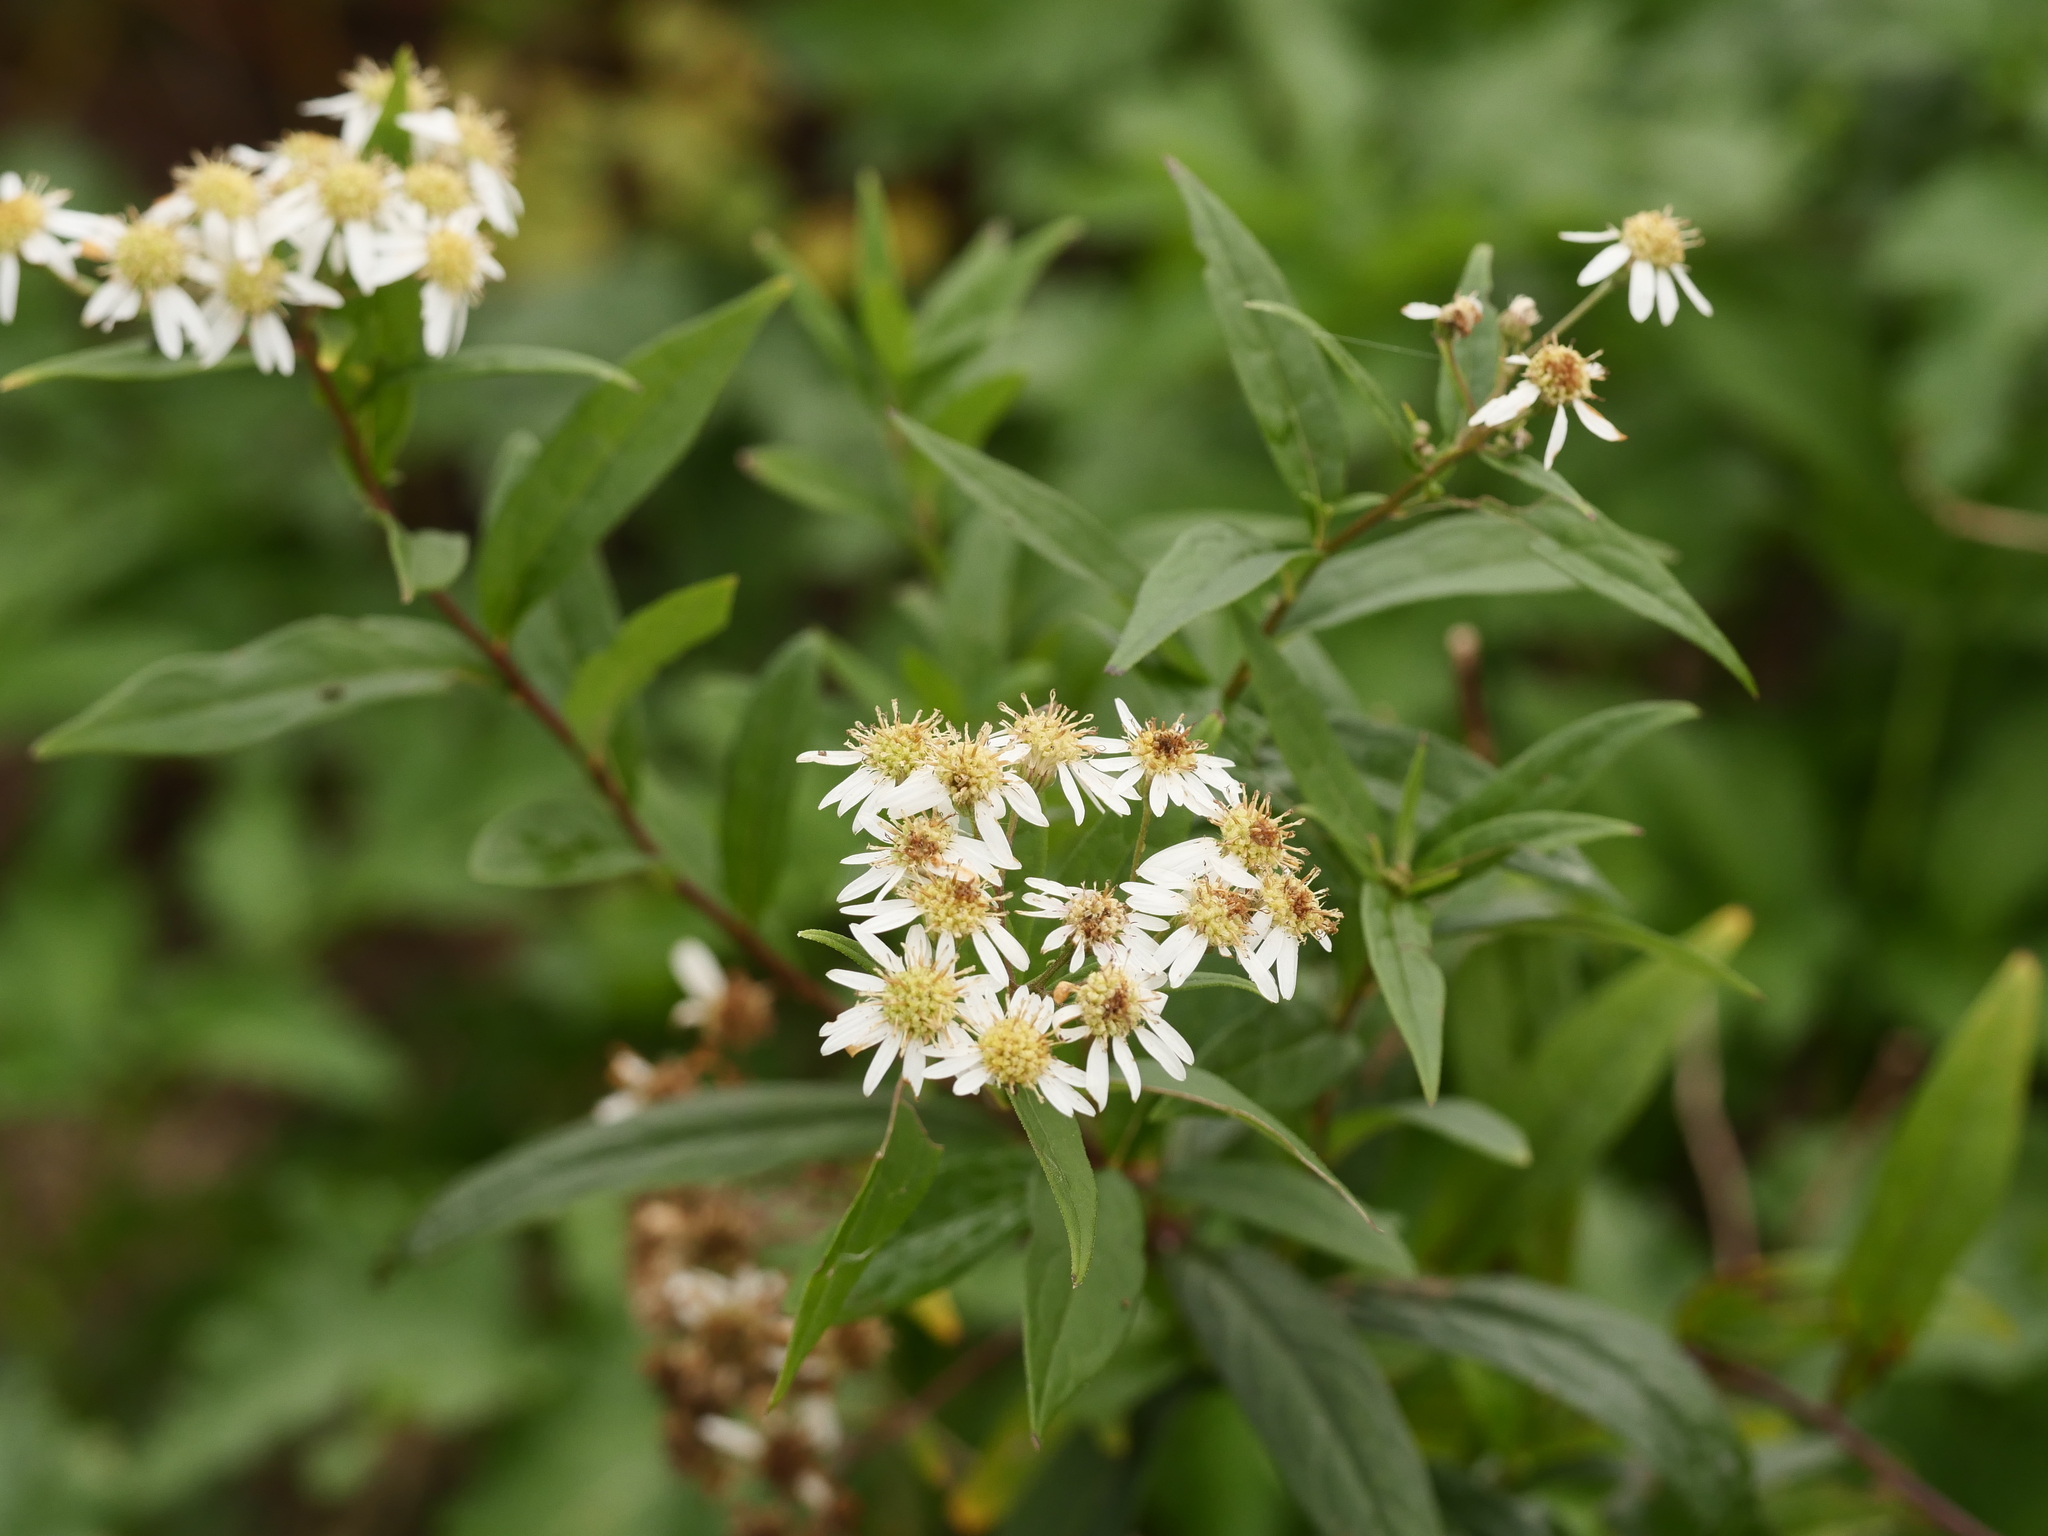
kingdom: Plantae
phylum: Tracheophyta
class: Magnoliopsida
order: Asterales
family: Asteraceae
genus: Doellingeria
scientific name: Doellingeria umbellata
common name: Flat-top white aster
